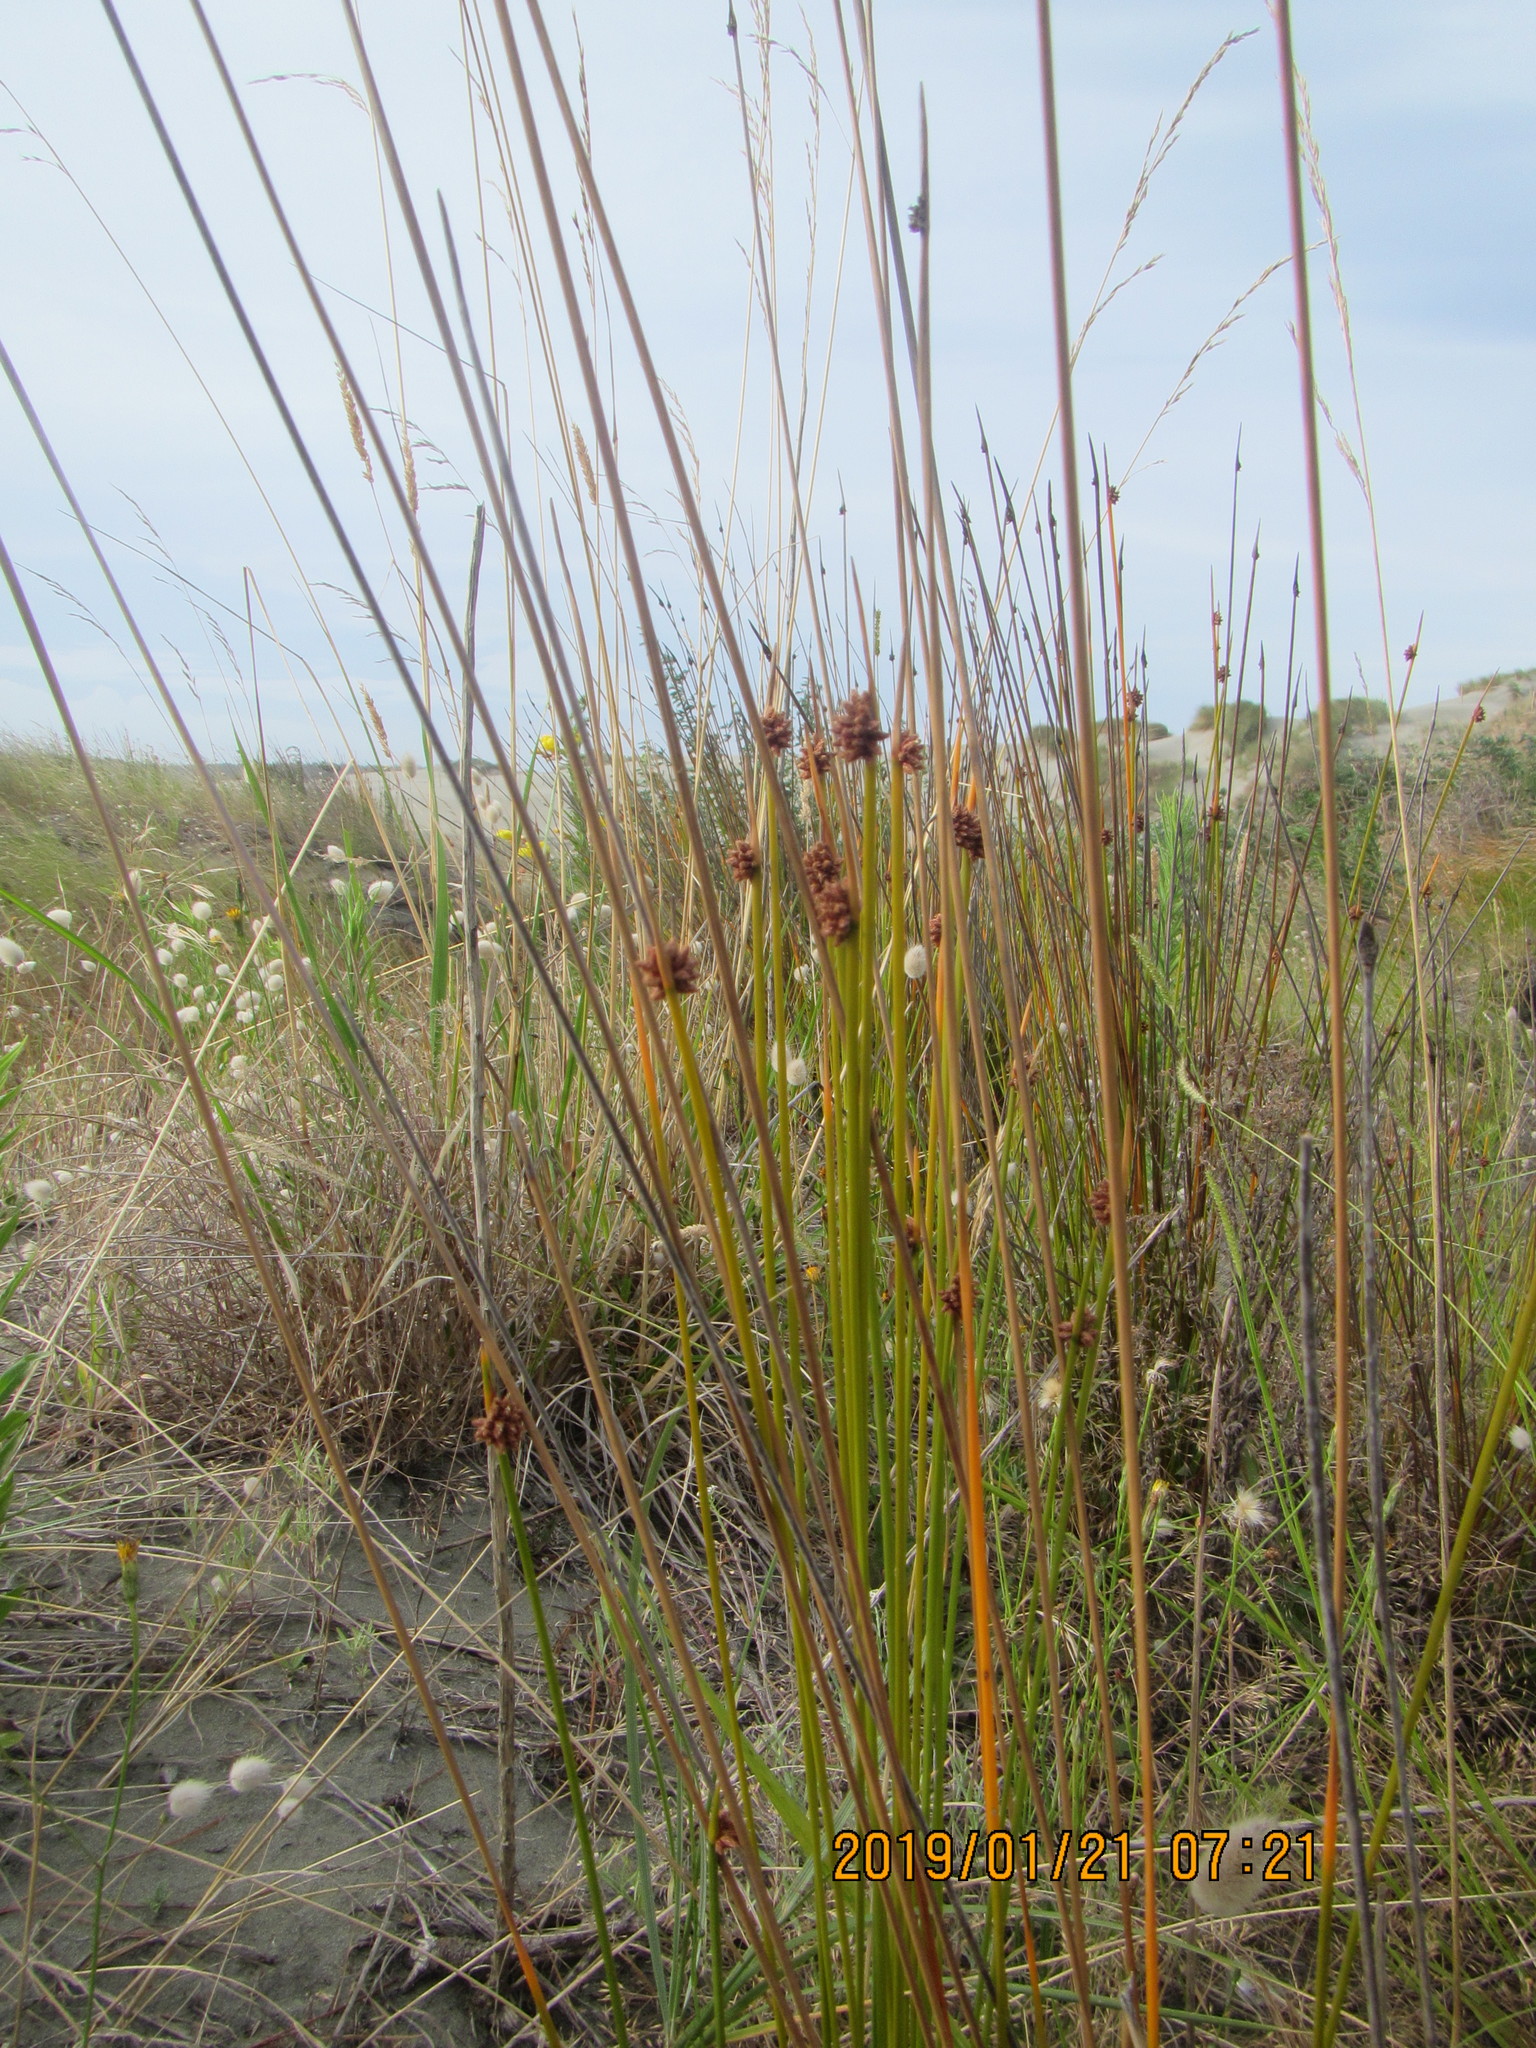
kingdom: Plantae
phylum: Tracheophyta
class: Liliopsida
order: Poales
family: Cyperaceae
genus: Ficinia
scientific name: Ficinia nodosa
